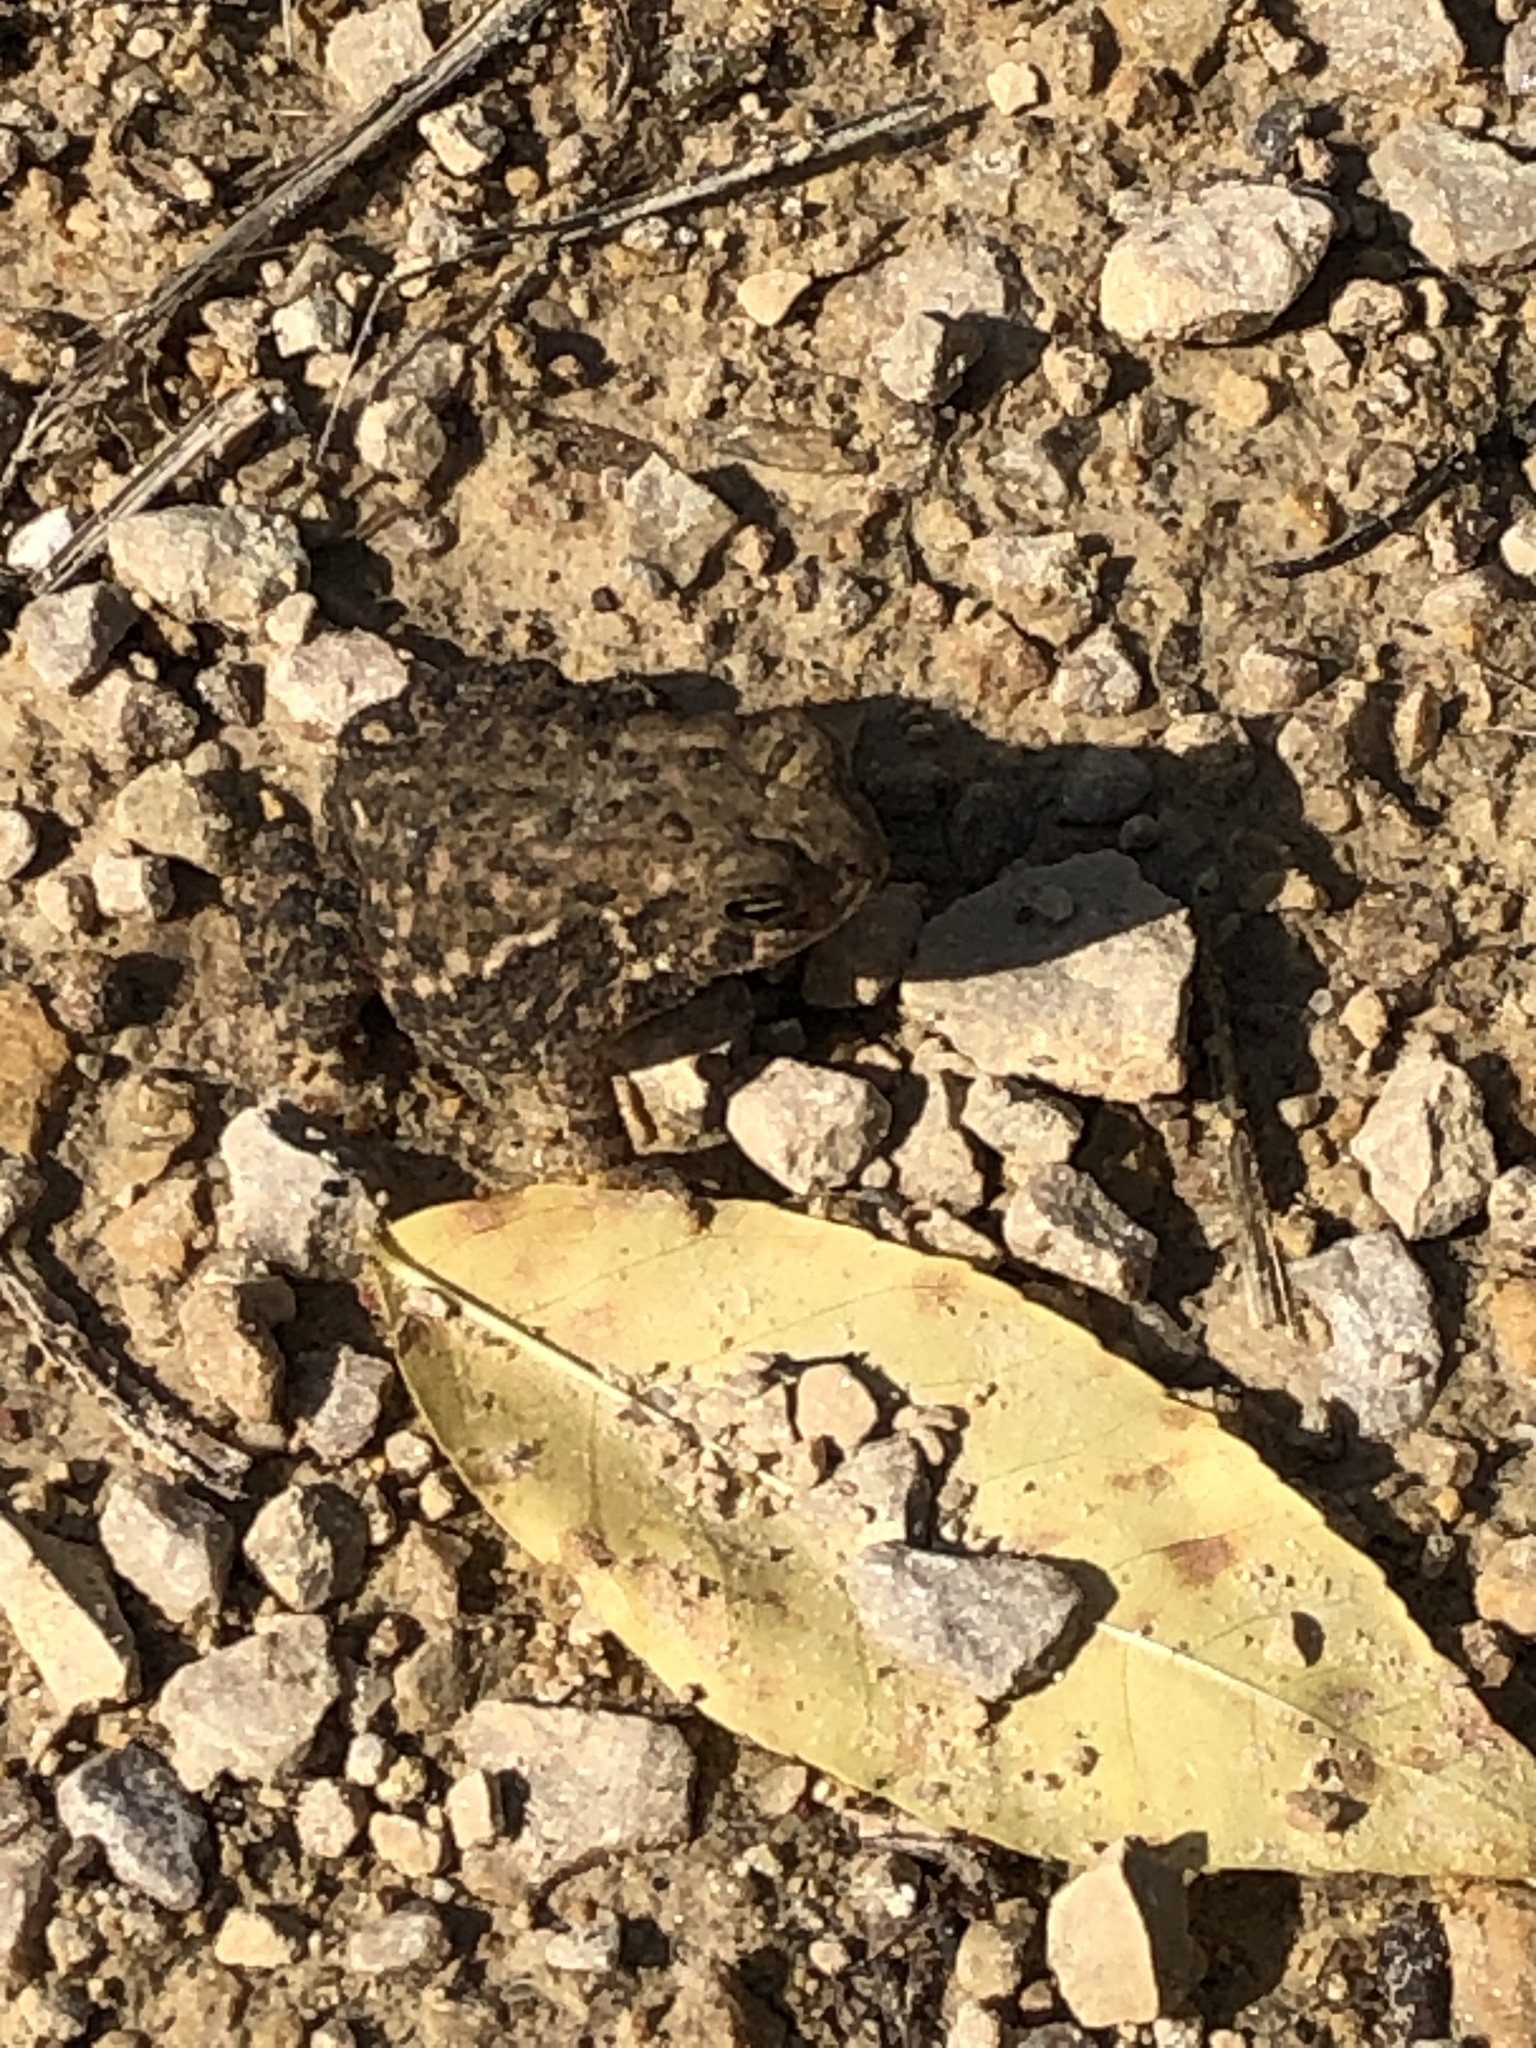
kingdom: Animalia
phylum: Chordata
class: Amphibia
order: Anura
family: Bufonidae
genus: Anaxyrus
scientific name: Anaxyrus americanus
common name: American toad
